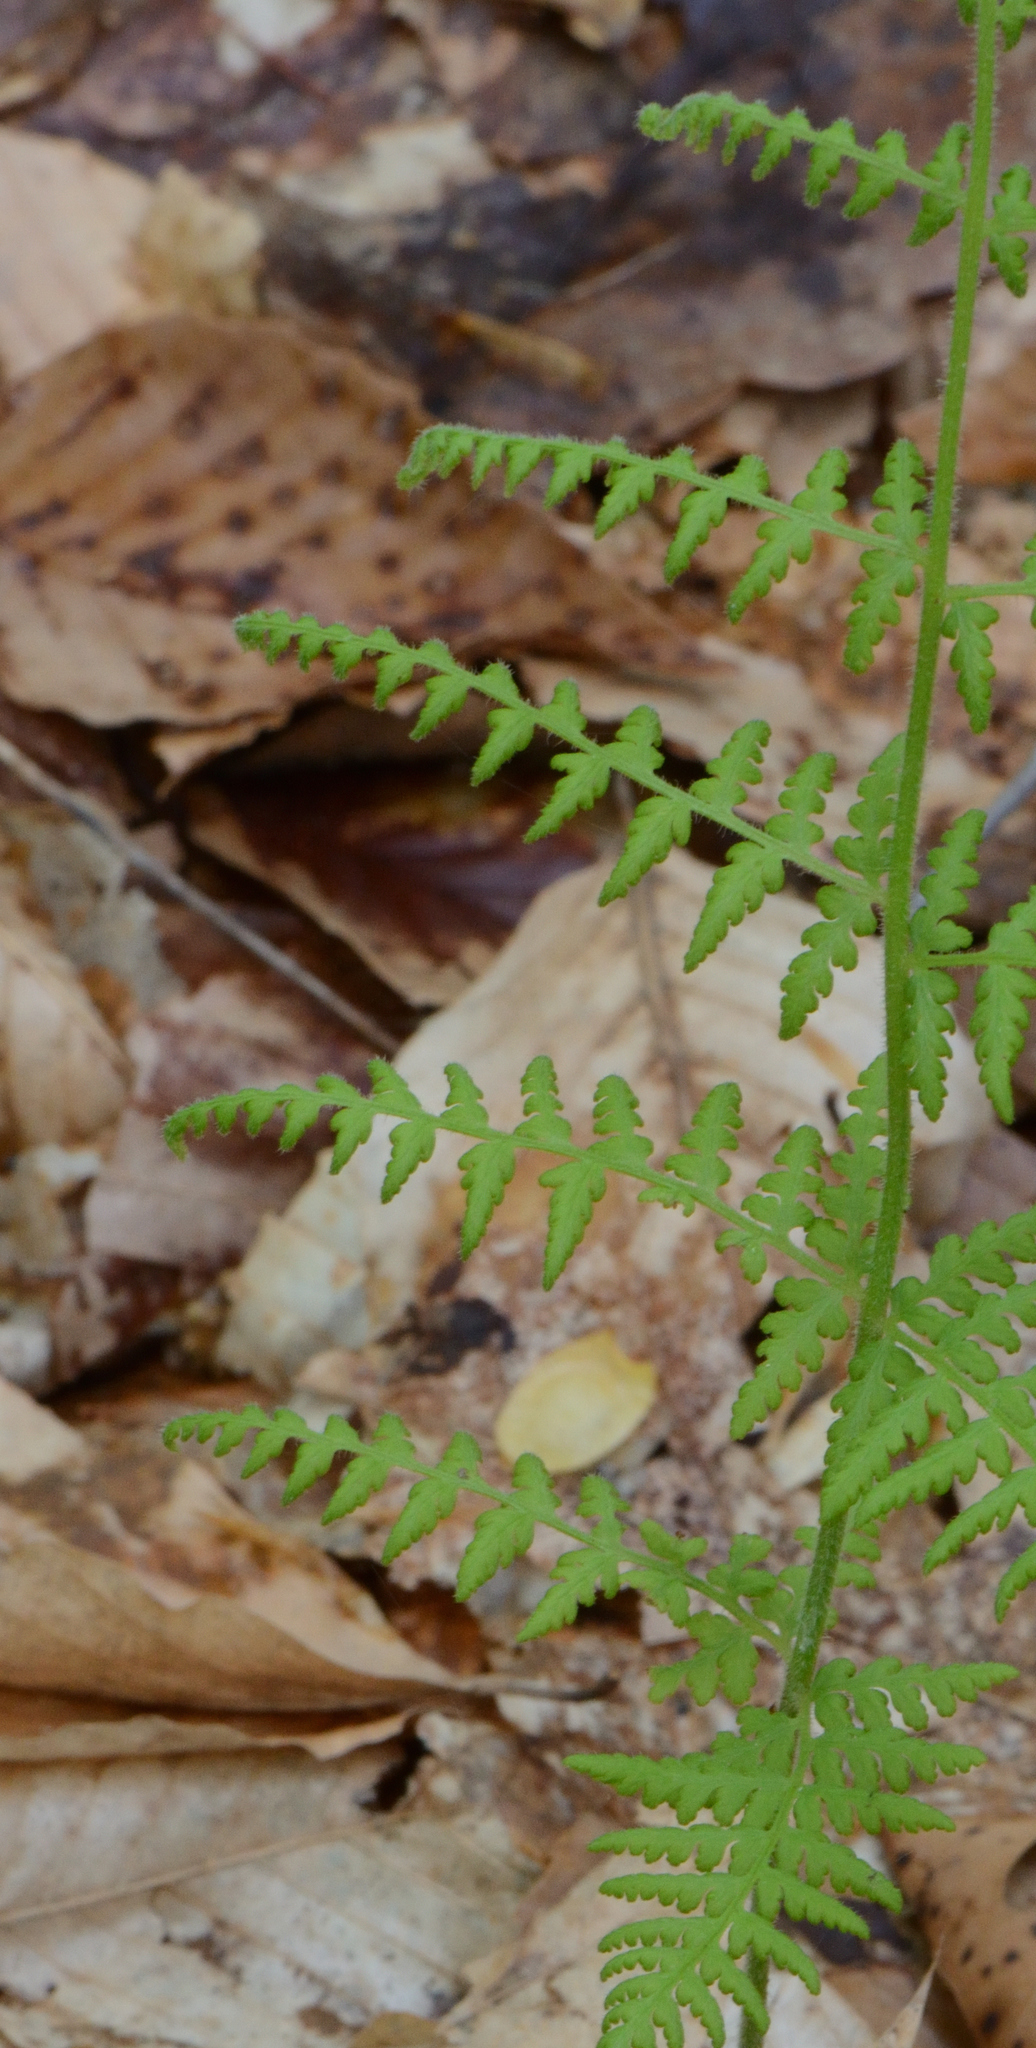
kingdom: Plantae
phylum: Tracheophyta
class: Polypodiopsida
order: Polypodiales
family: Dennstaedtiaceae
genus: Sitobolium
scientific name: Sitobolium punctilobum
